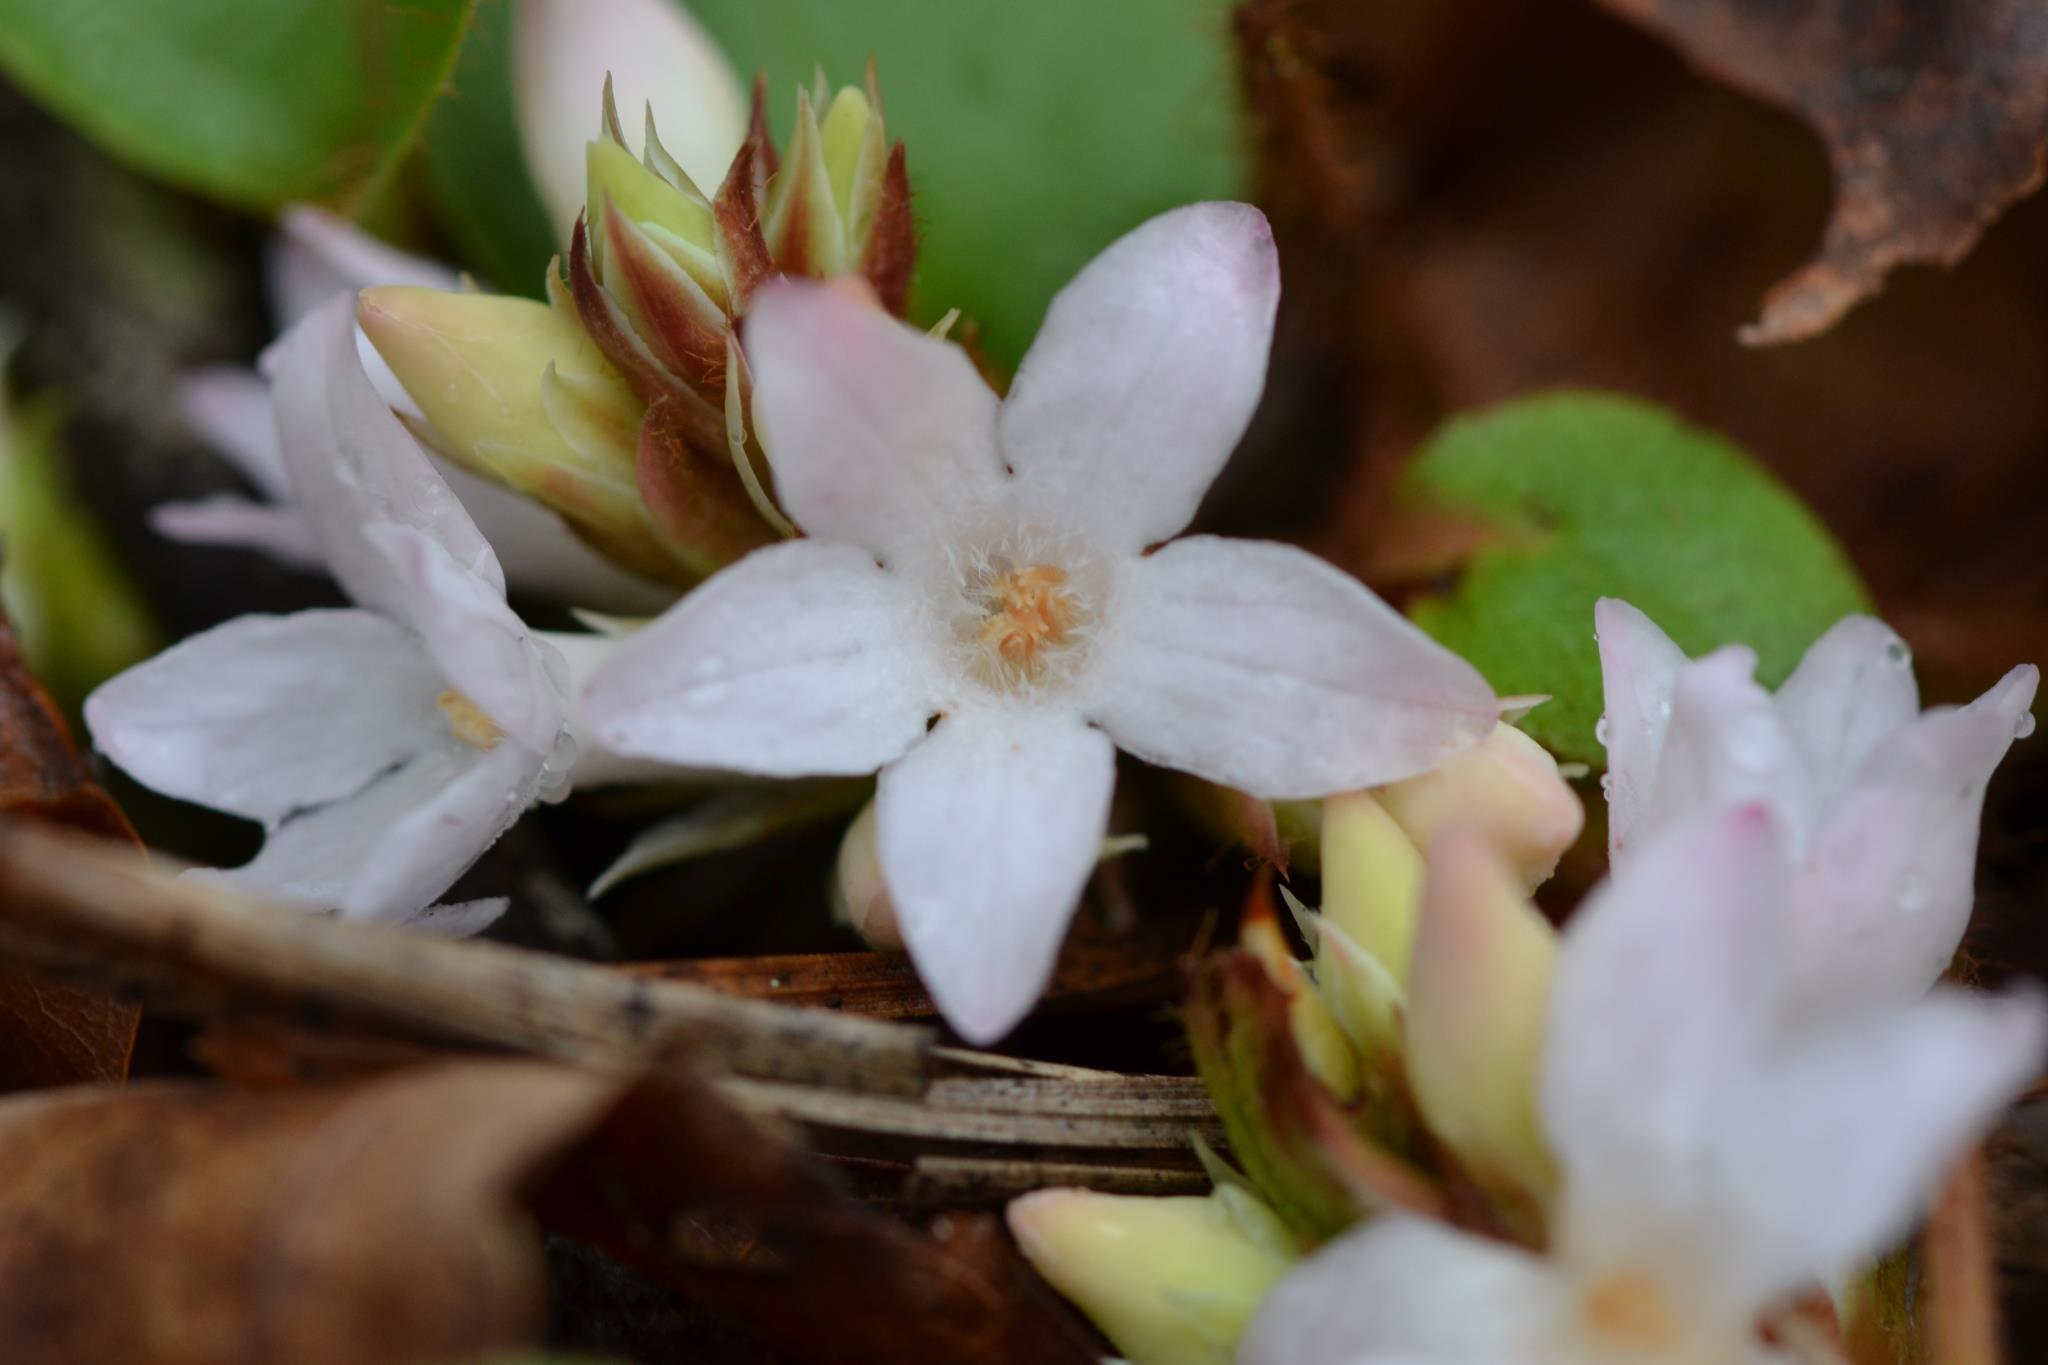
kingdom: Plantae
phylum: Tracheophyta
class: Magnoliopsida
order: Ericales
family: Ericaceae
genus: Epigaea
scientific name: Epigaea repens
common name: Gravelroot
